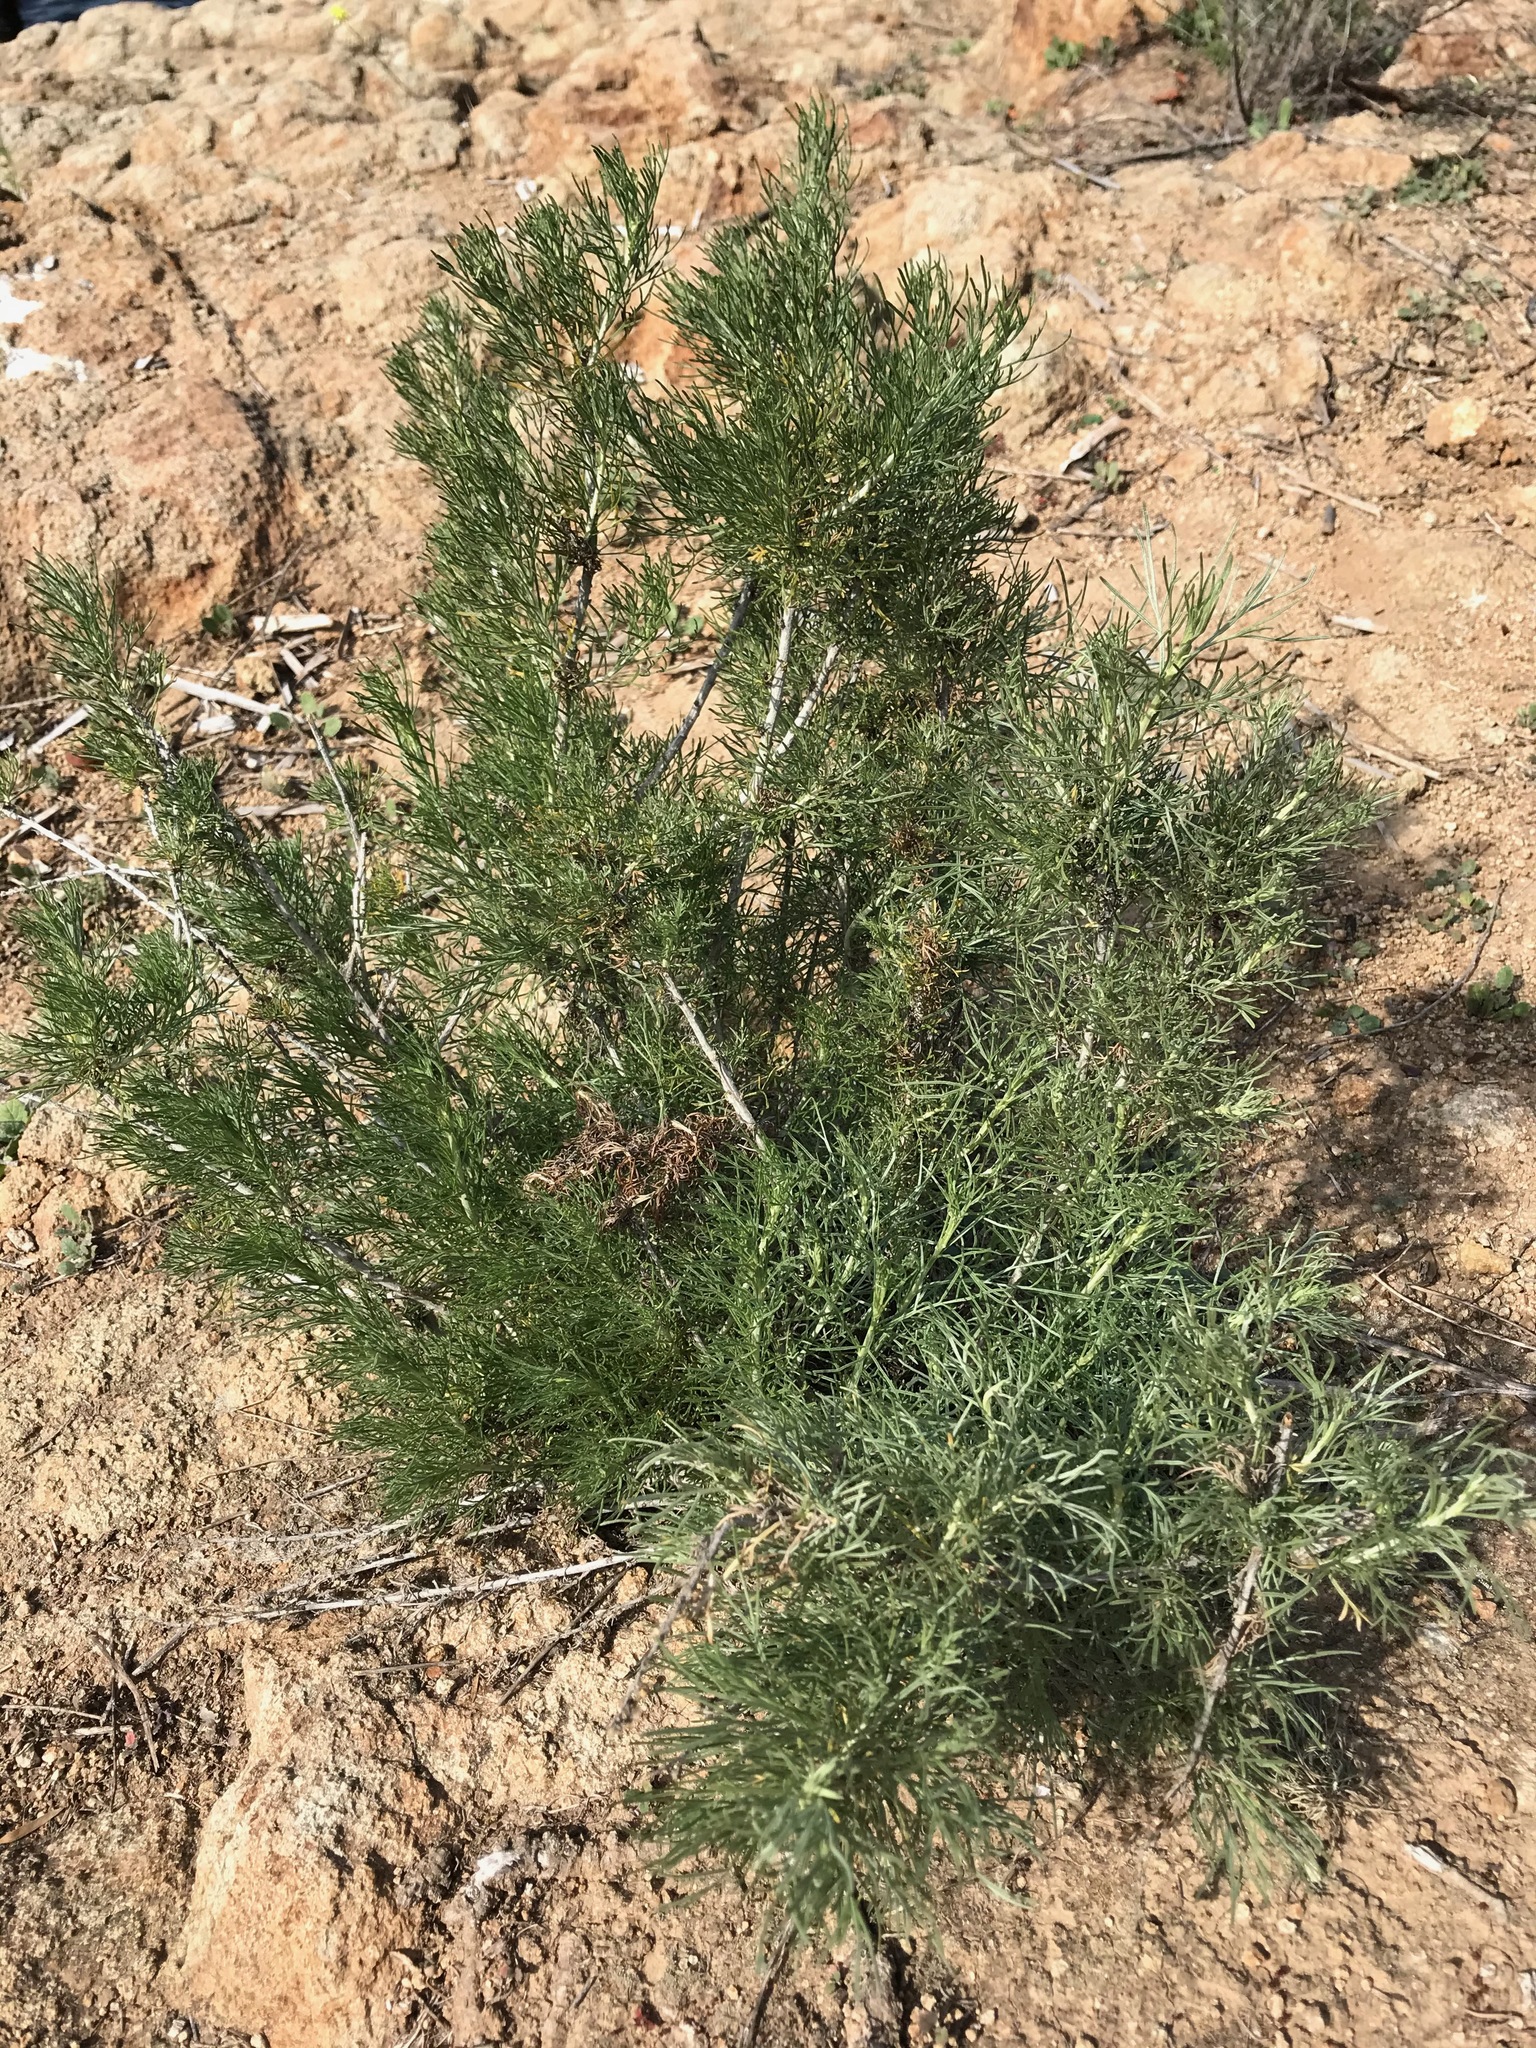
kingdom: Plantae
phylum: Tracheophyta
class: Magnoliopsida
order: Asterales
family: Asteraceae
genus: Artemisia
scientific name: Artemisia californica
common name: California sagebrush
